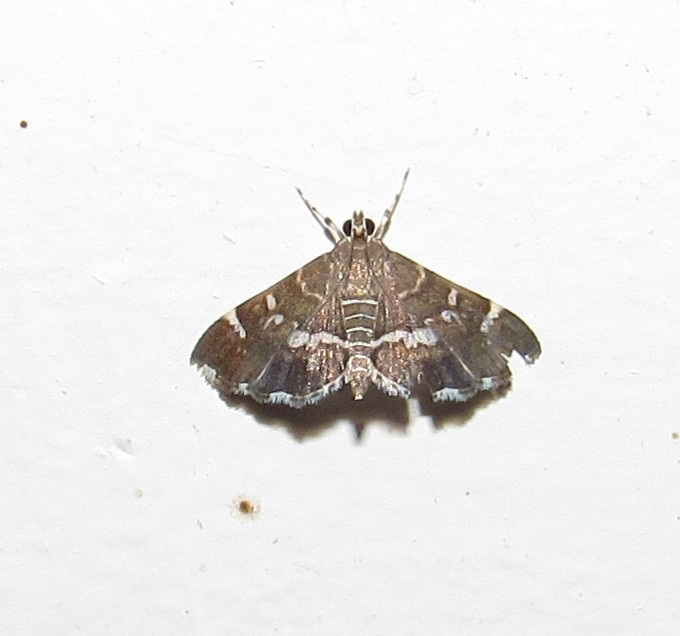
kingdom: Animalia
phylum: Arthropoda
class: Insecta
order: Lepidoptera
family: Crambidae
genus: Hymenia
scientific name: Hymenia perspectalis
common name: Spotted beet webworm
